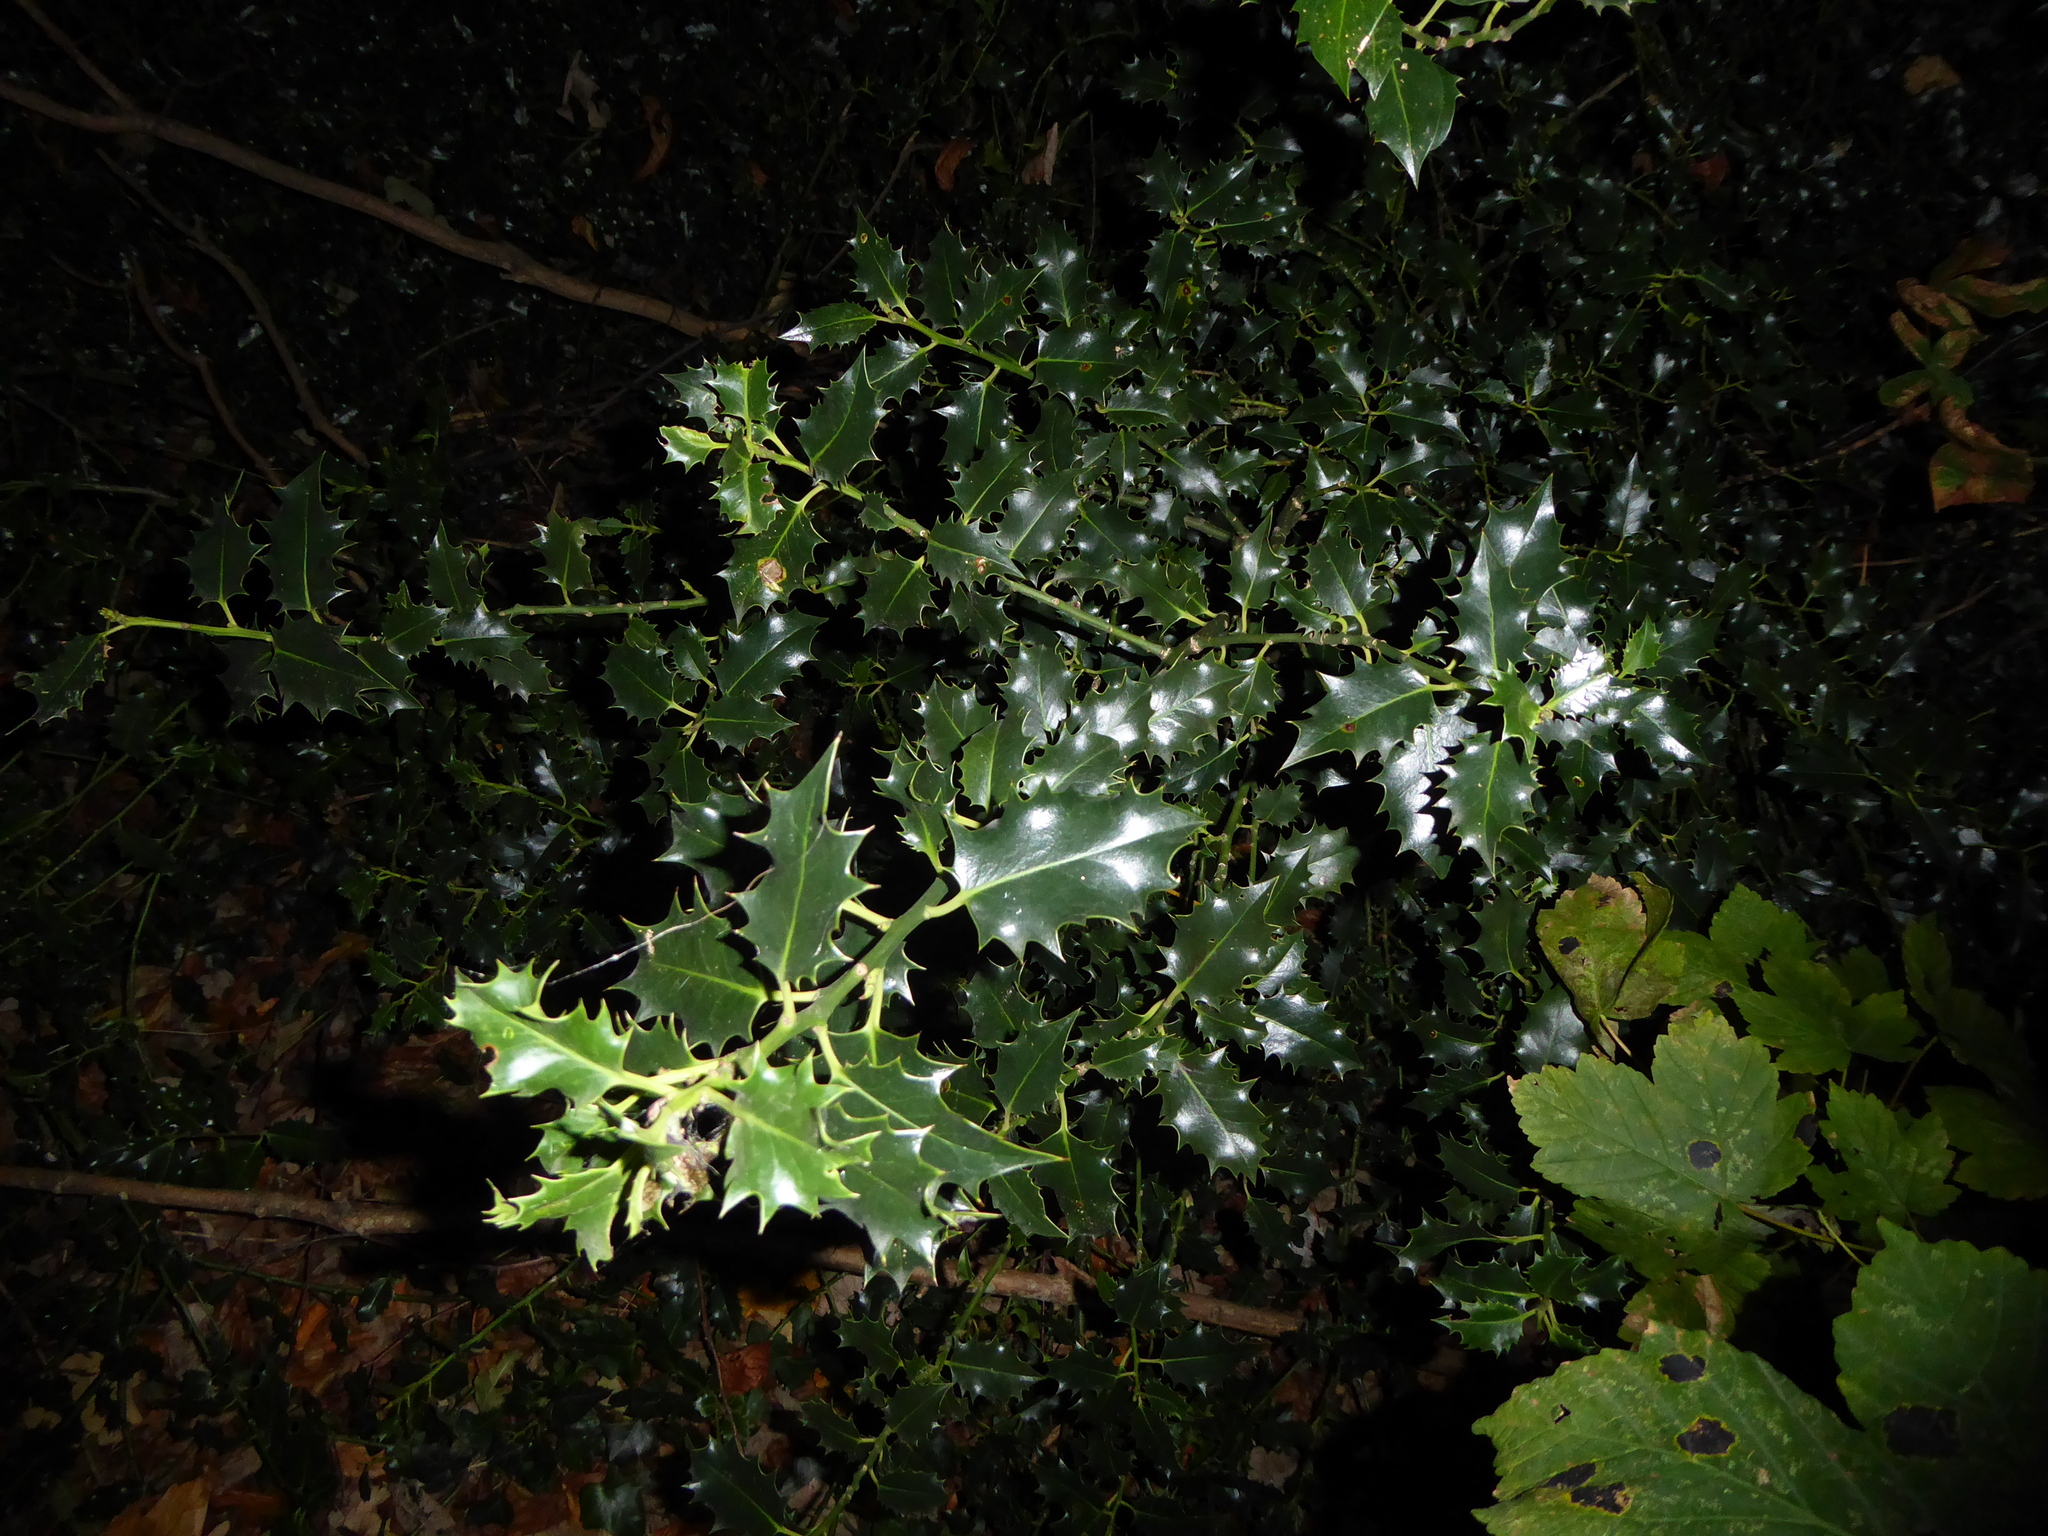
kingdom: Plantae
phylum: Tracheophyta
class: Magnoliopsida
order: Aquifoliales
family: Aquifoliaceae
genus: Ilex
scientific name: Ilex aquifolium
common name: English holly
